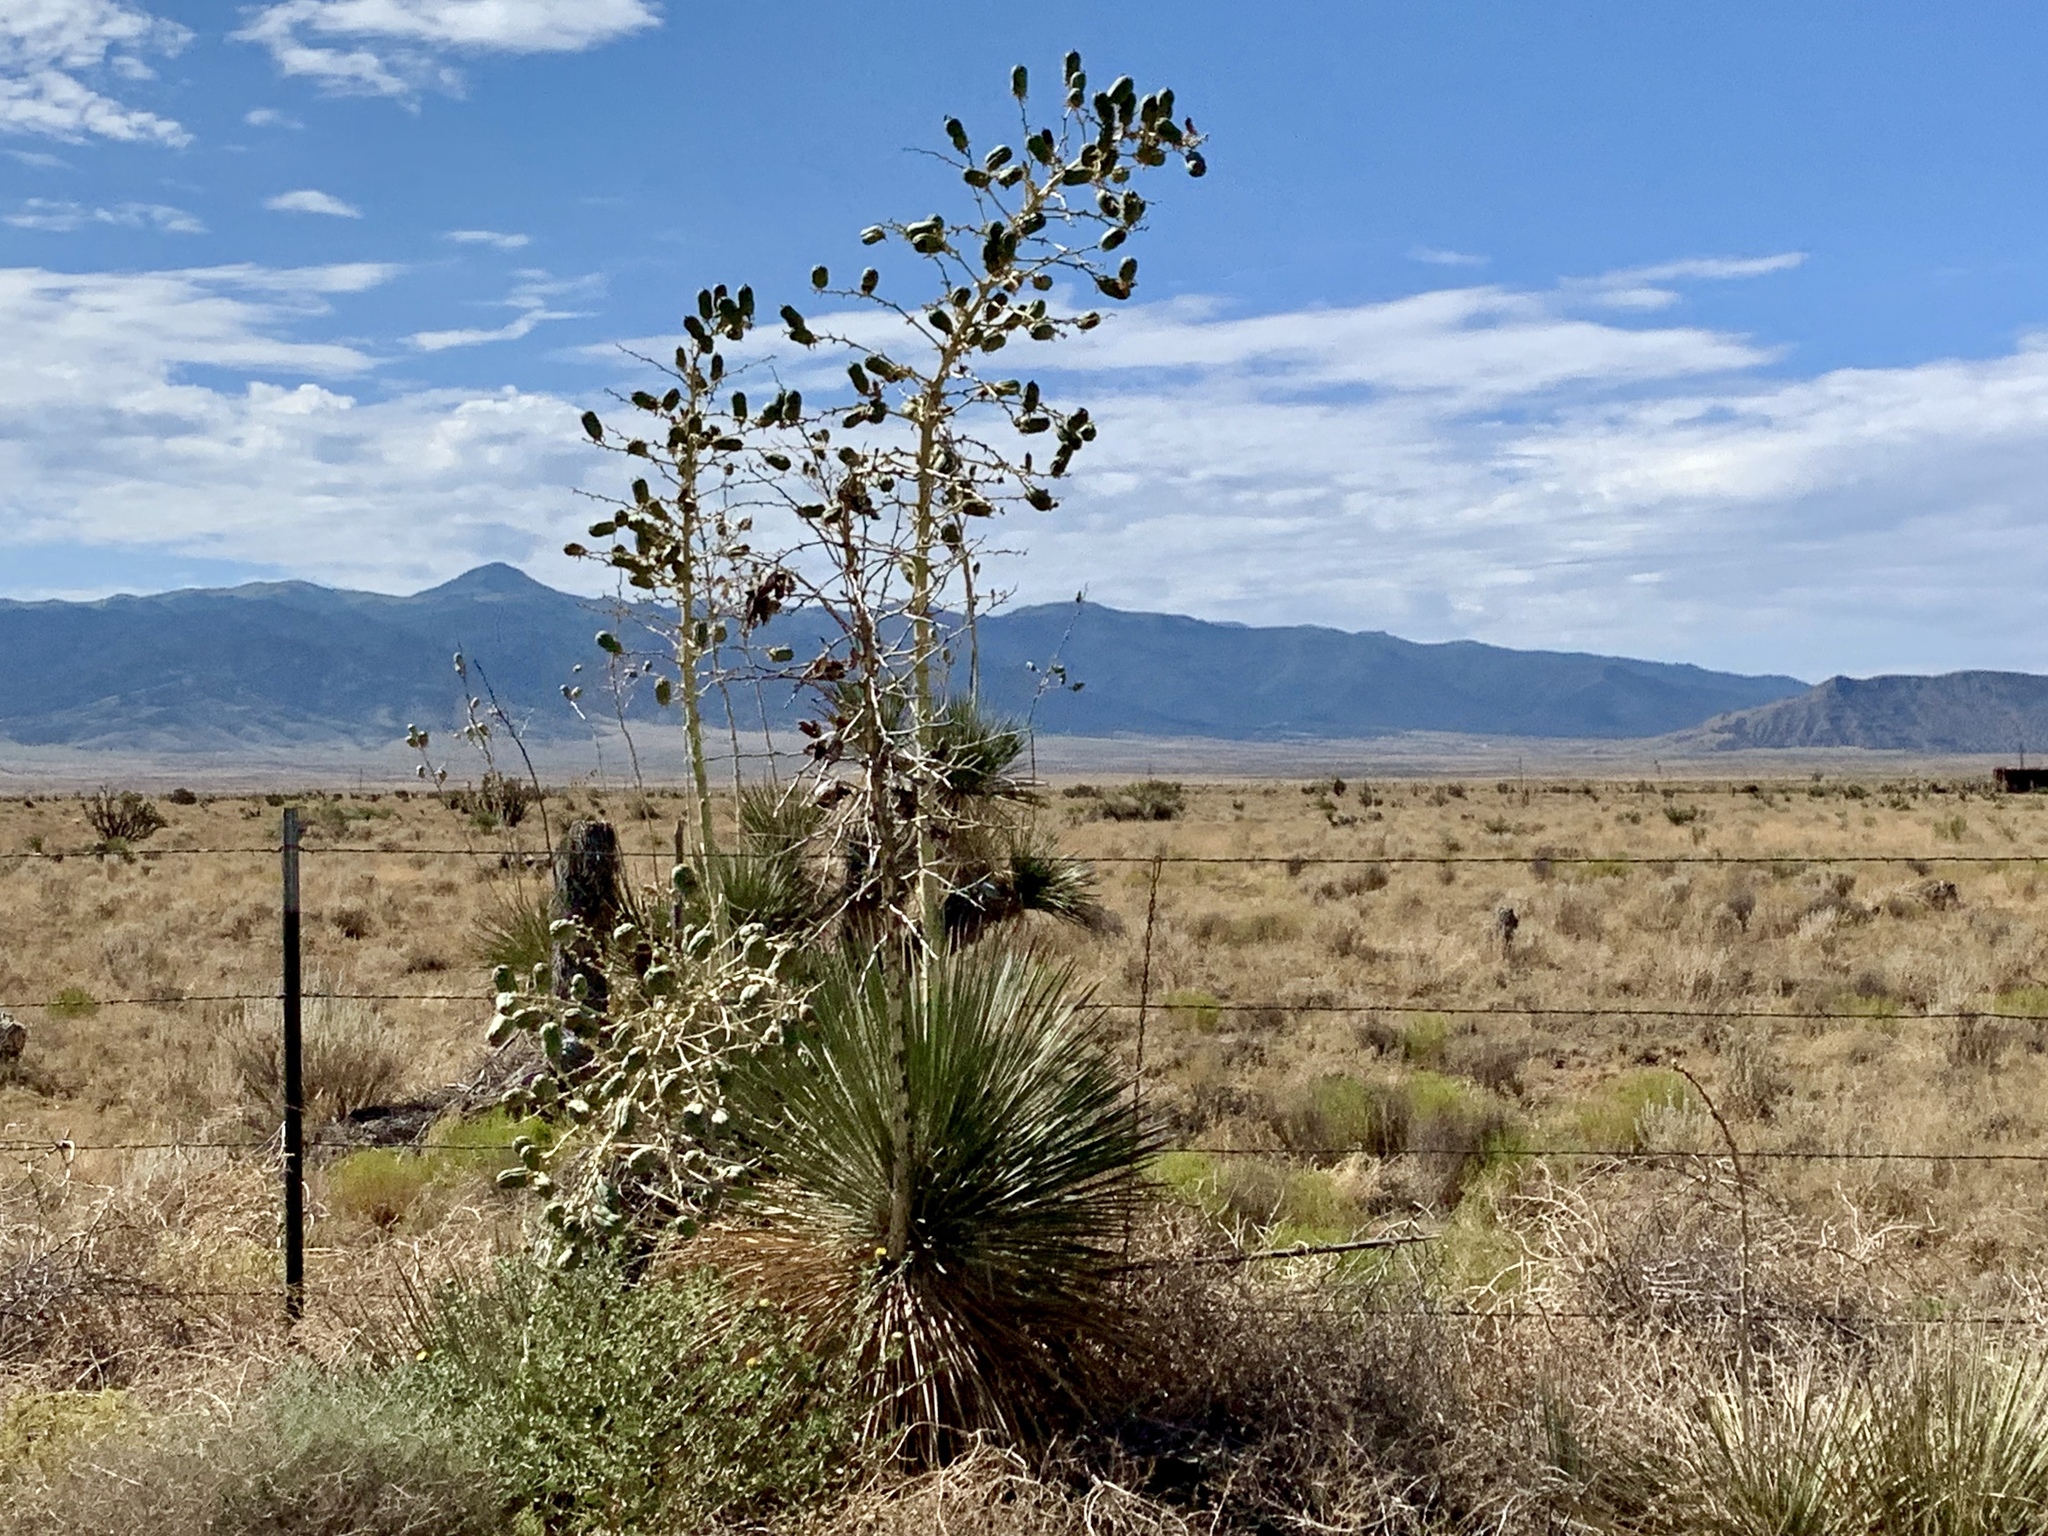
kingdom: Plantae
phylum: Tracheophyta
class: Liliopsida
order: Asparagales
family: Asparagaceae
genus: Yucca
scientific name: Yucca elata
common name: Palmella
